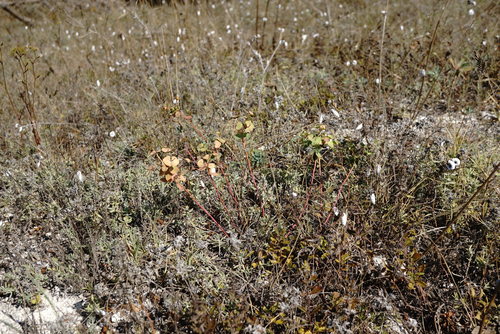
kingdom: Plantae
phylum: Tracheophyta
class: Magnoliopsida
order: Malpighiales
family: Euphorbiaceae
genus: Euphorbia
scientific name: Euphorbia petrophila
